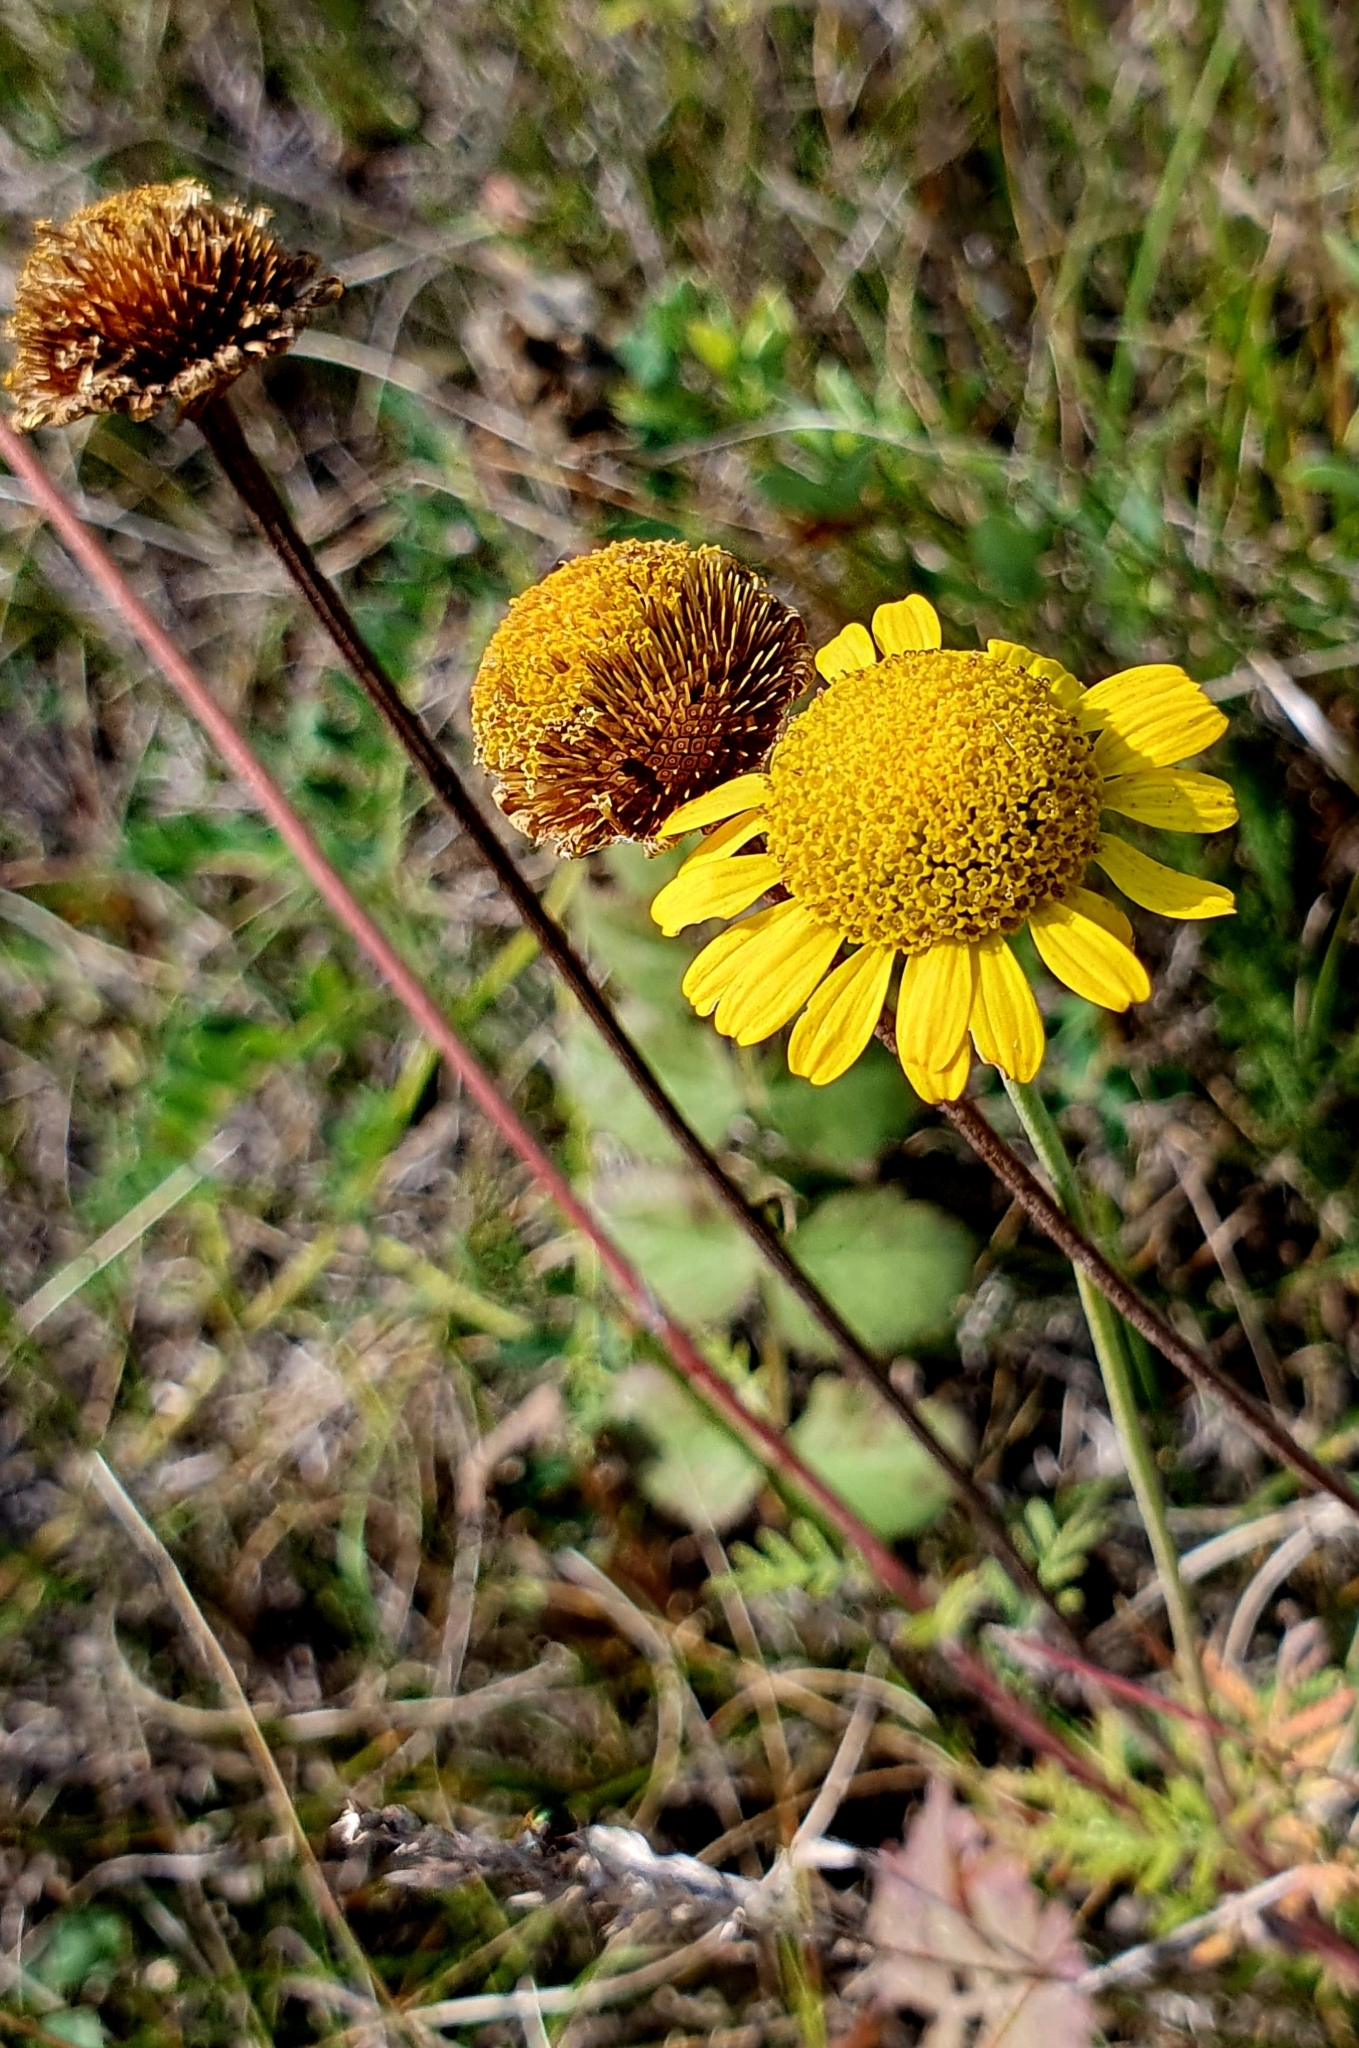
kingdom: Plantae
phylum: Tracheophyta
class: Magnoliopsida
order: Asterales
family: Asteraceae
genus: Cota
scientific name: Cota tinctoria
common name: Golden chamomile
